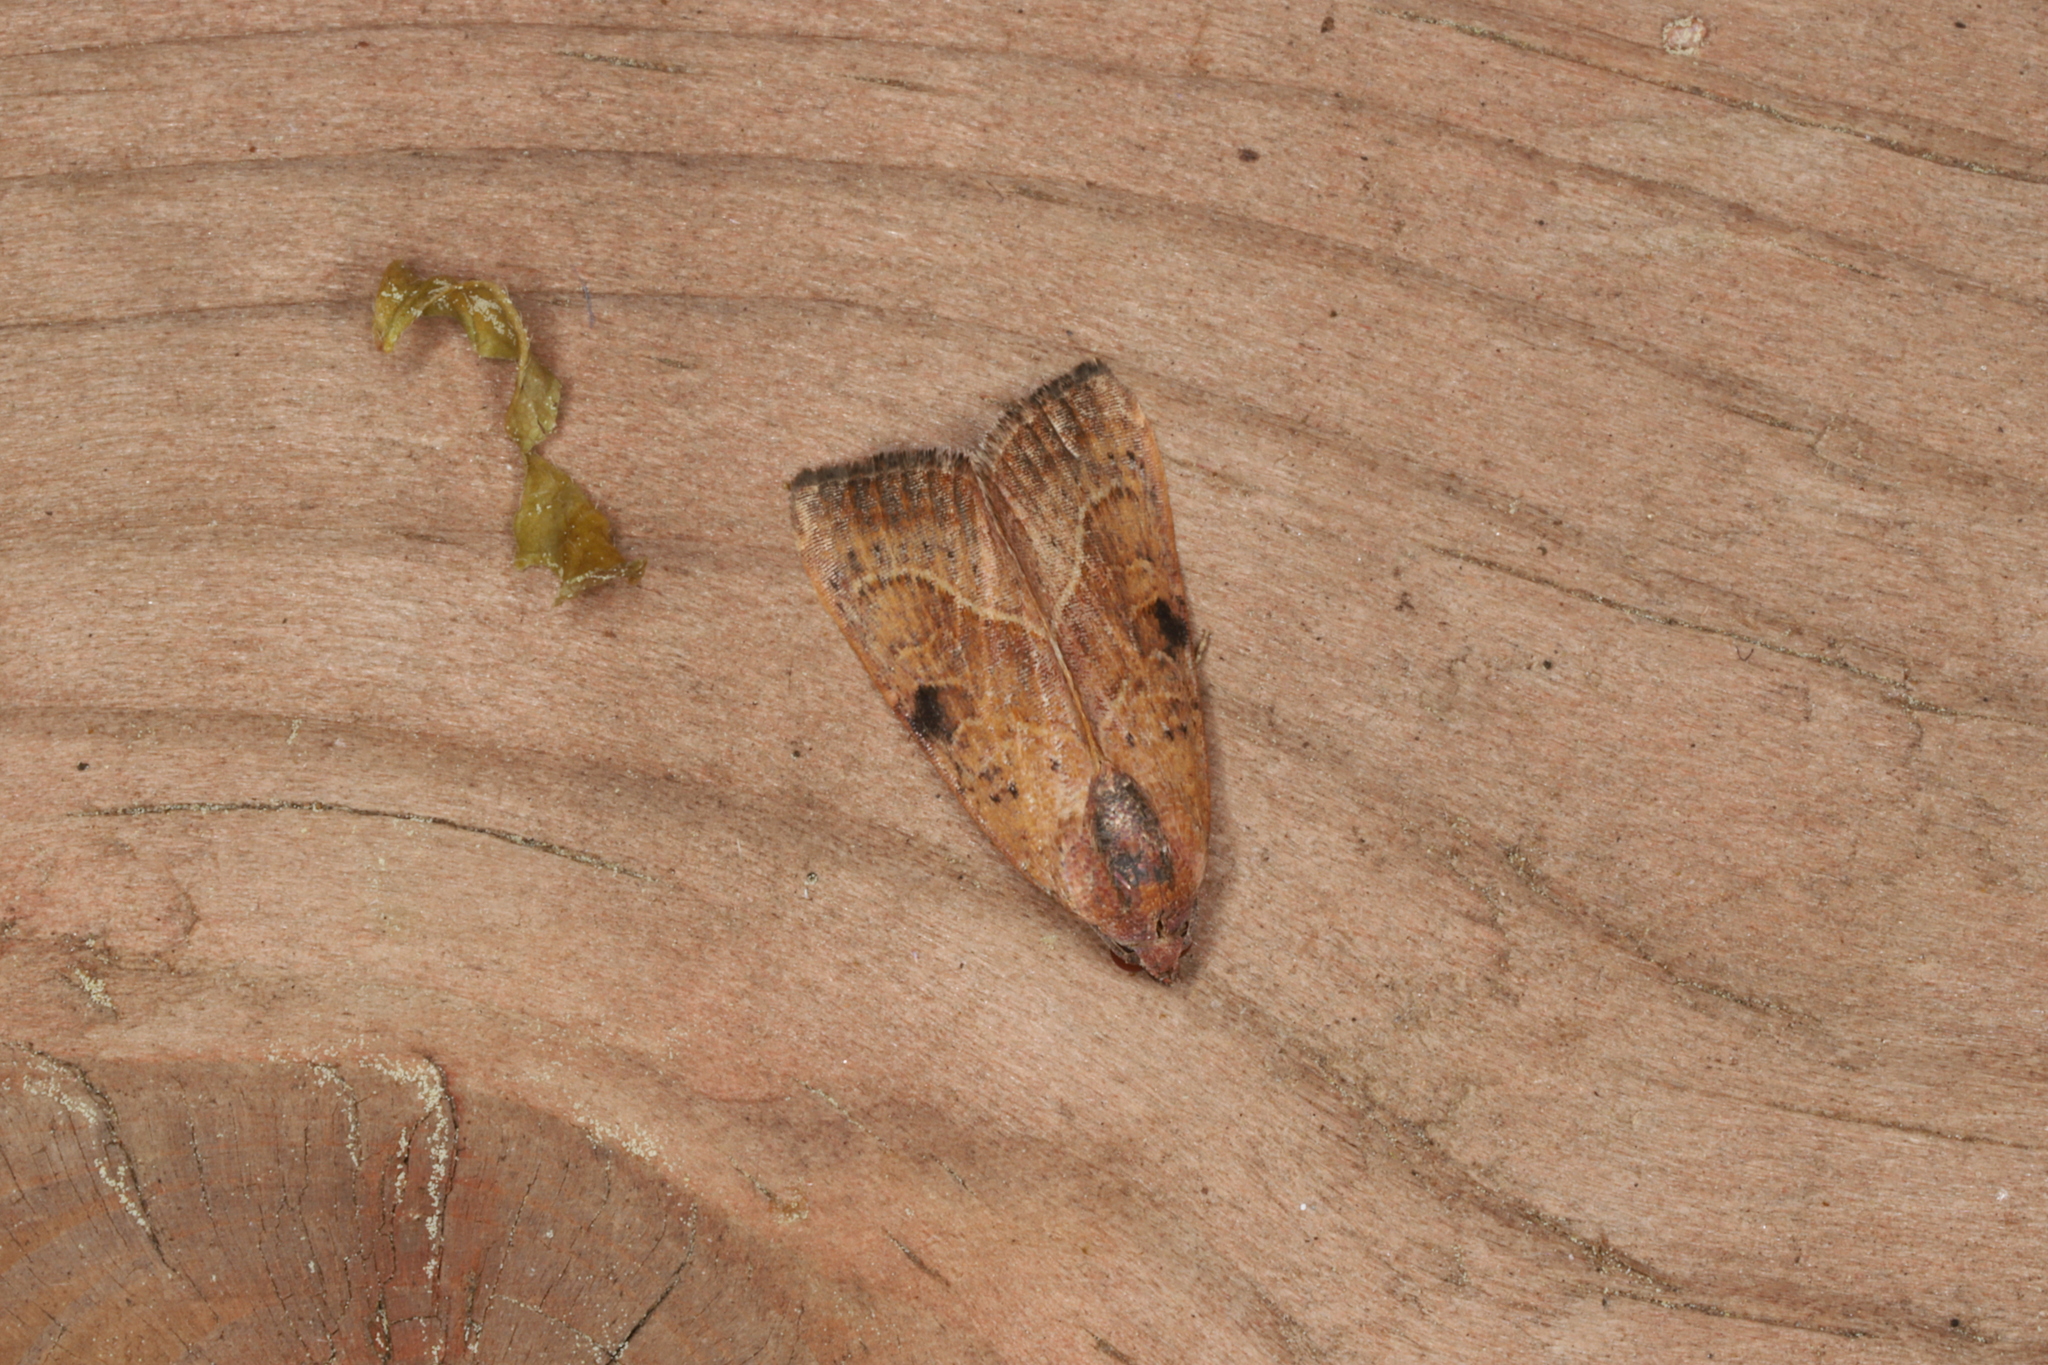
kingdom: Animalia
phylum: Arthropoda
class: Insecta
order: Lepidoptera
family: Noctuidae
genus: Galgula
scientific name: Galgula partita
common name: Wedgeling
